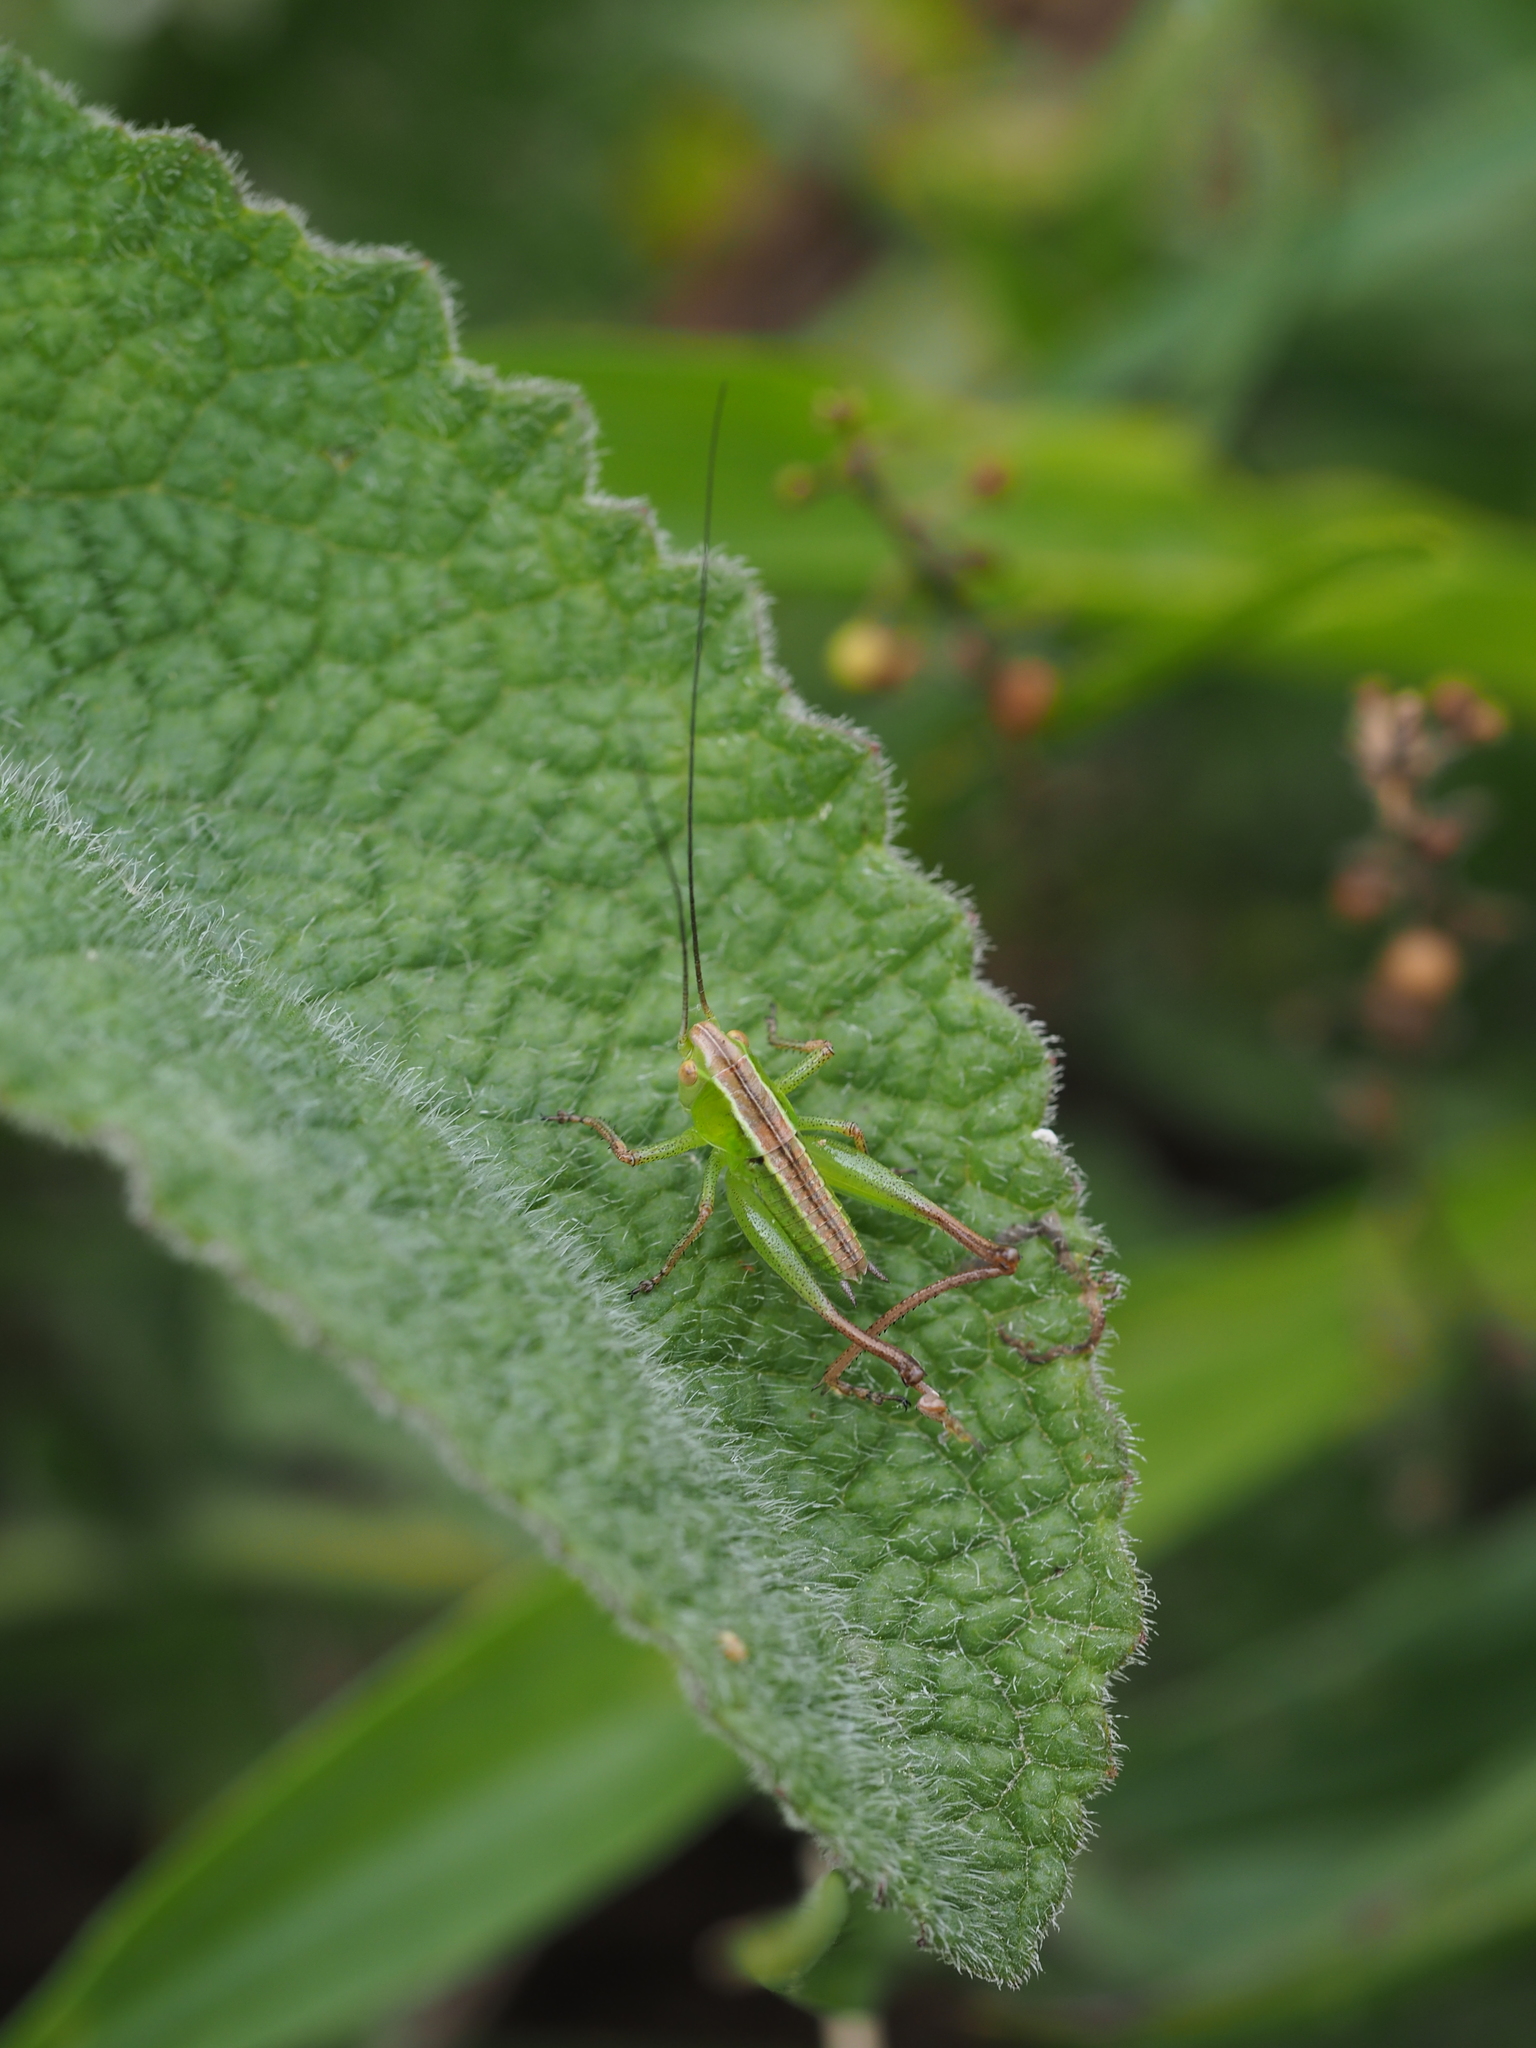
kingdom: Animalia
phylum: Arthropoda
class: Insecta
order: Orthoptera
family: Tettigoniidae
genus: Bicolorana
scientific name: Bicolorana bicolor
